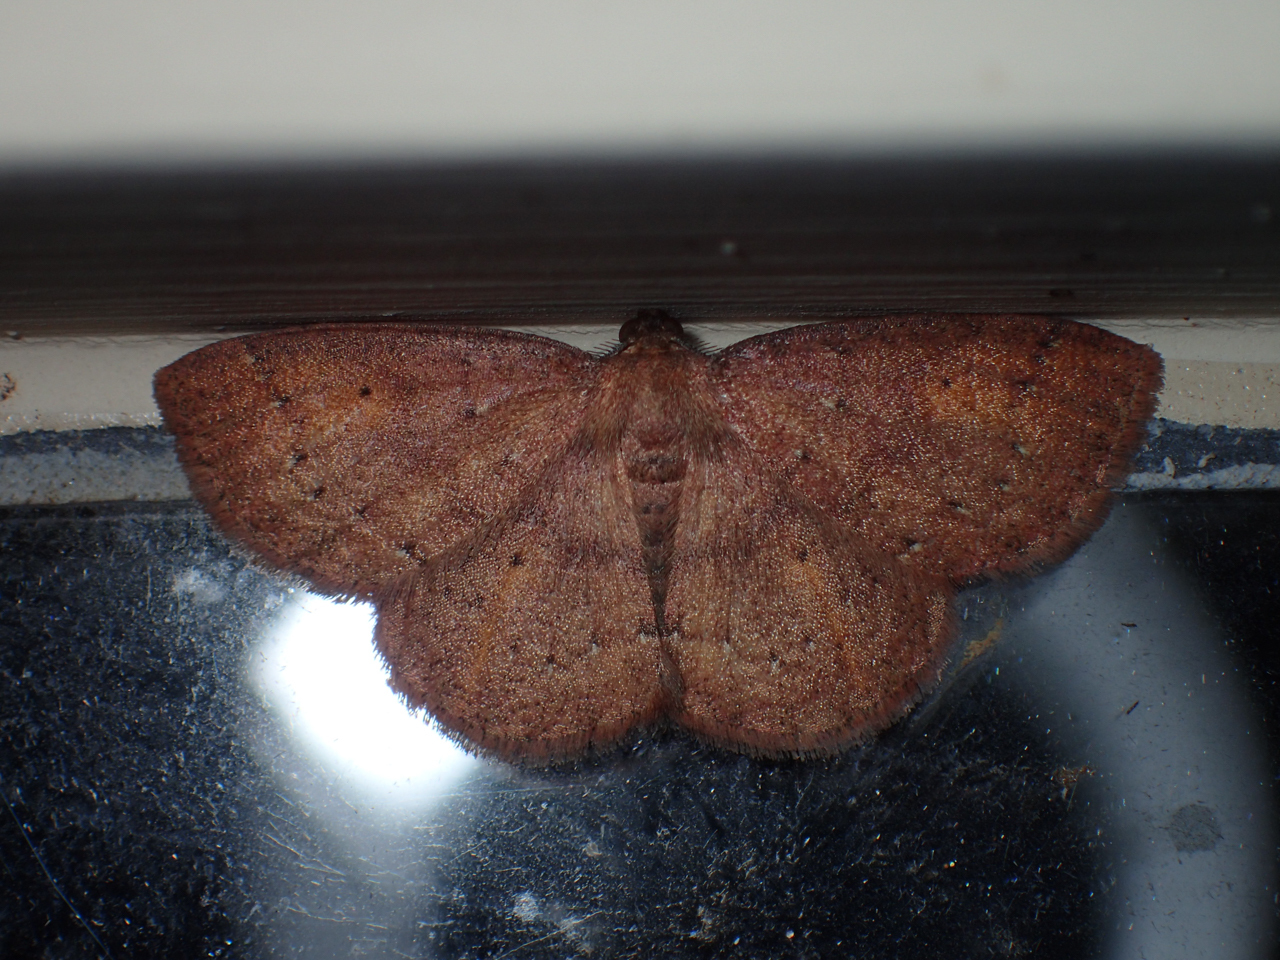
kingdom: Animalia
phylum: Arthropoda
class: Insecta
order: Lepidoptera
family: Geometridae
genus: Ilexia
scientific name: Ilexia intractata
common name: Black-dotted ruddy moth
